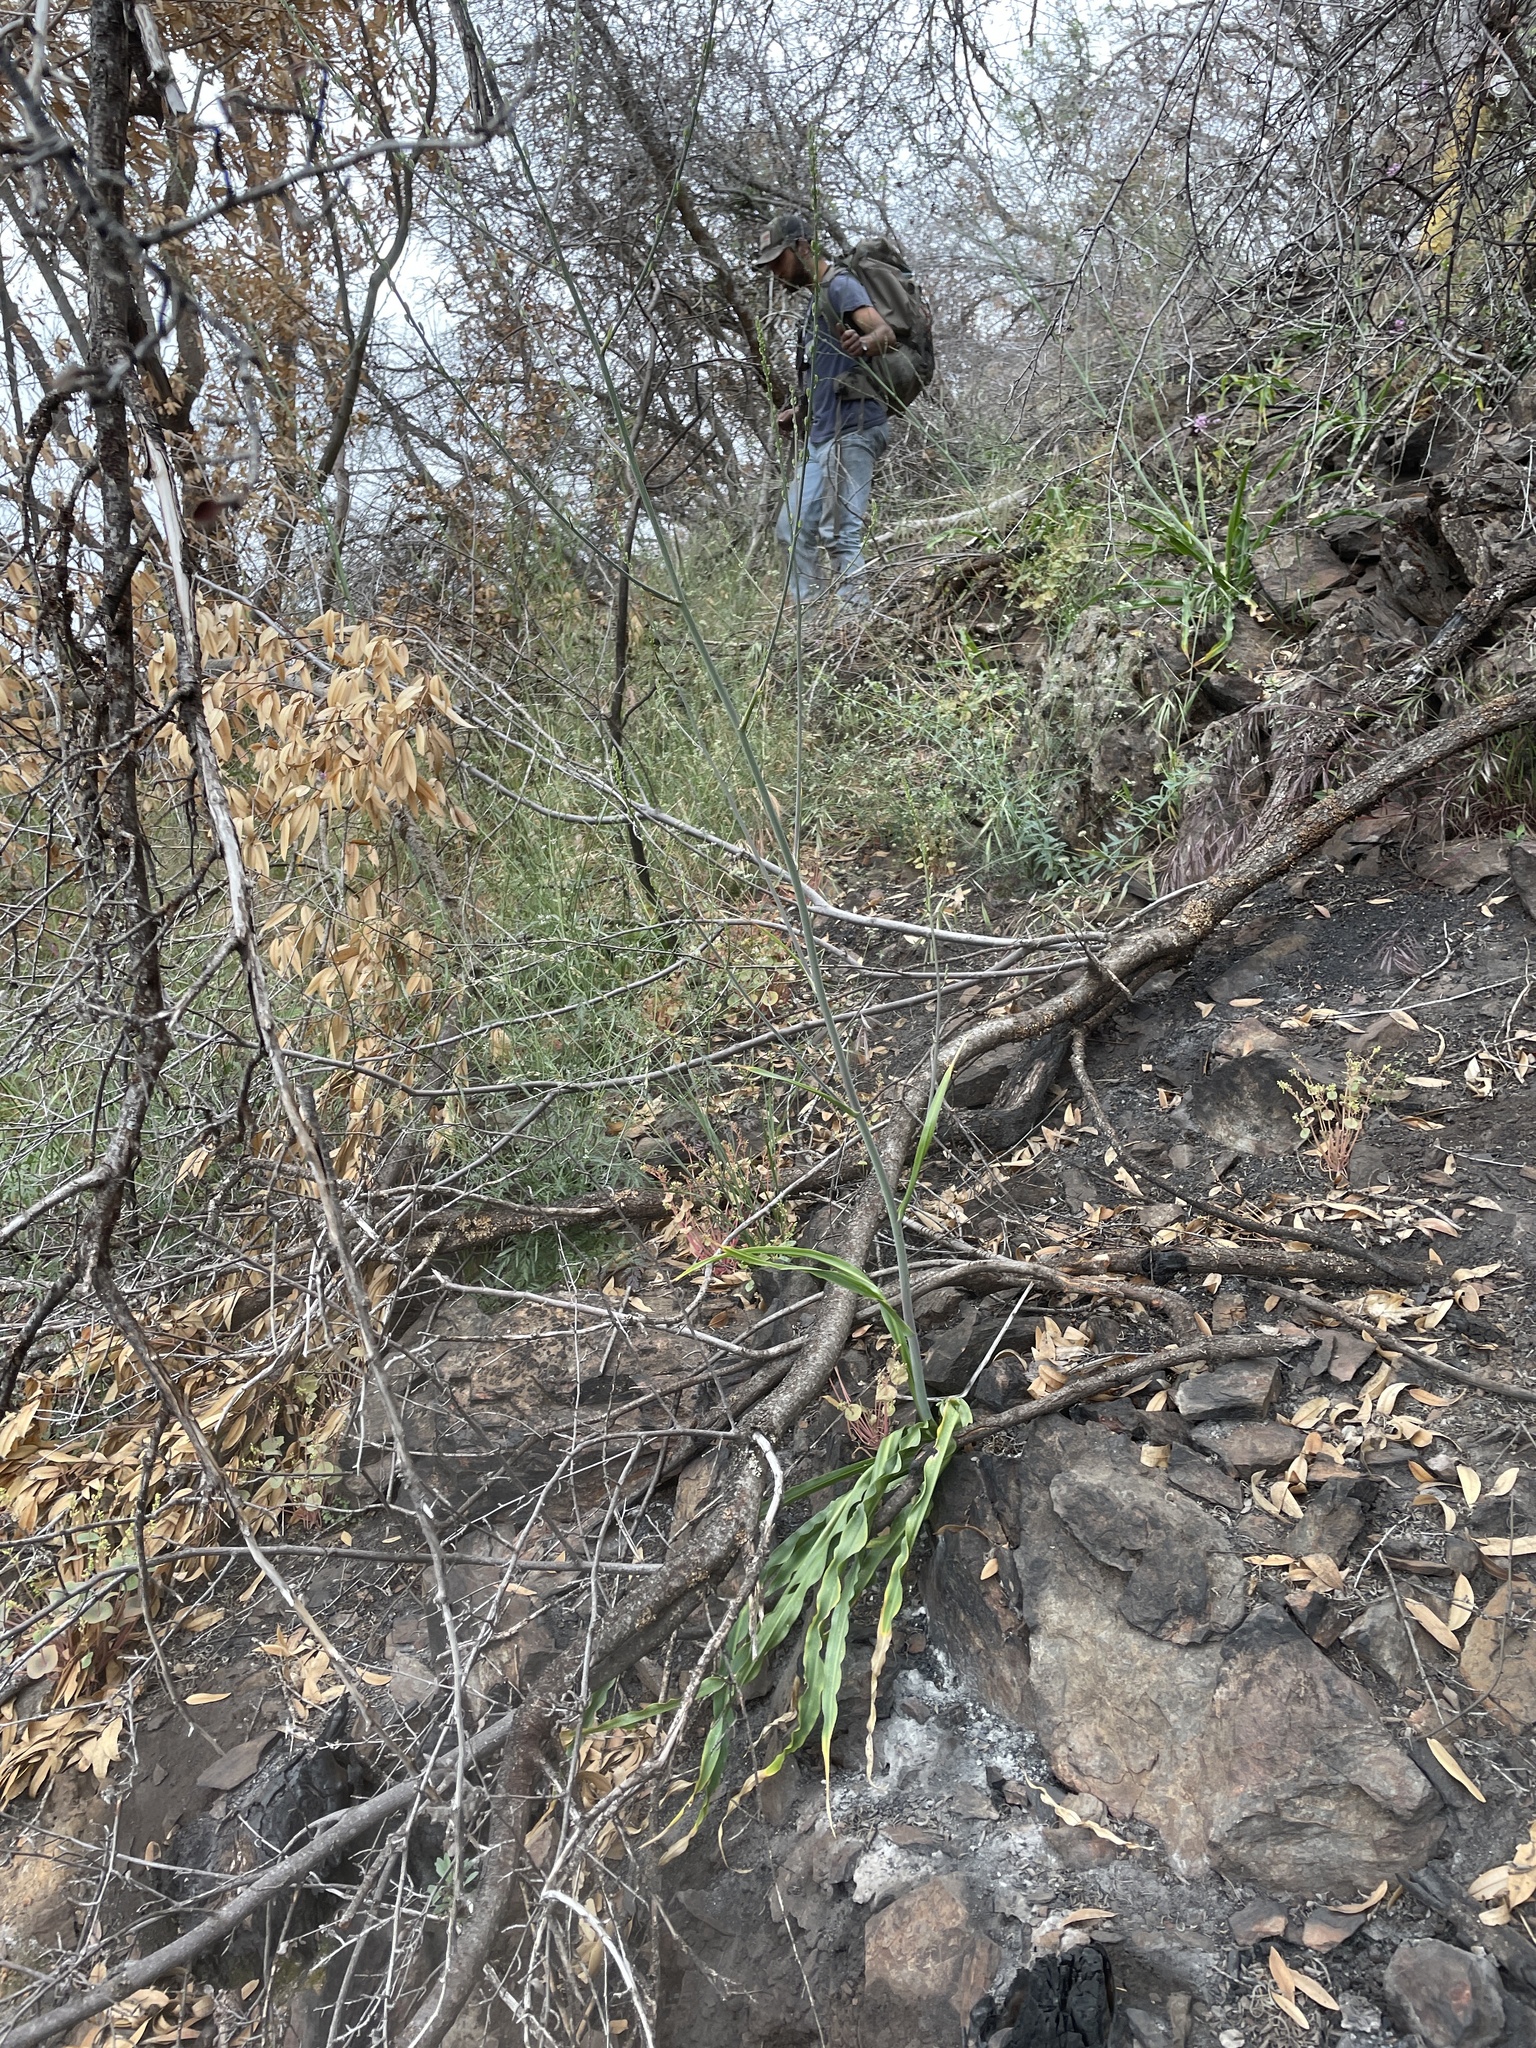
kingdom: Plantae
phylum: Tracheophyta
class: Liliopsida
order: Asparagales
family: Asparagaceae
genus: Chlorogalum
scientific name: Chlorogalum pomeridianum
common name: Amole
